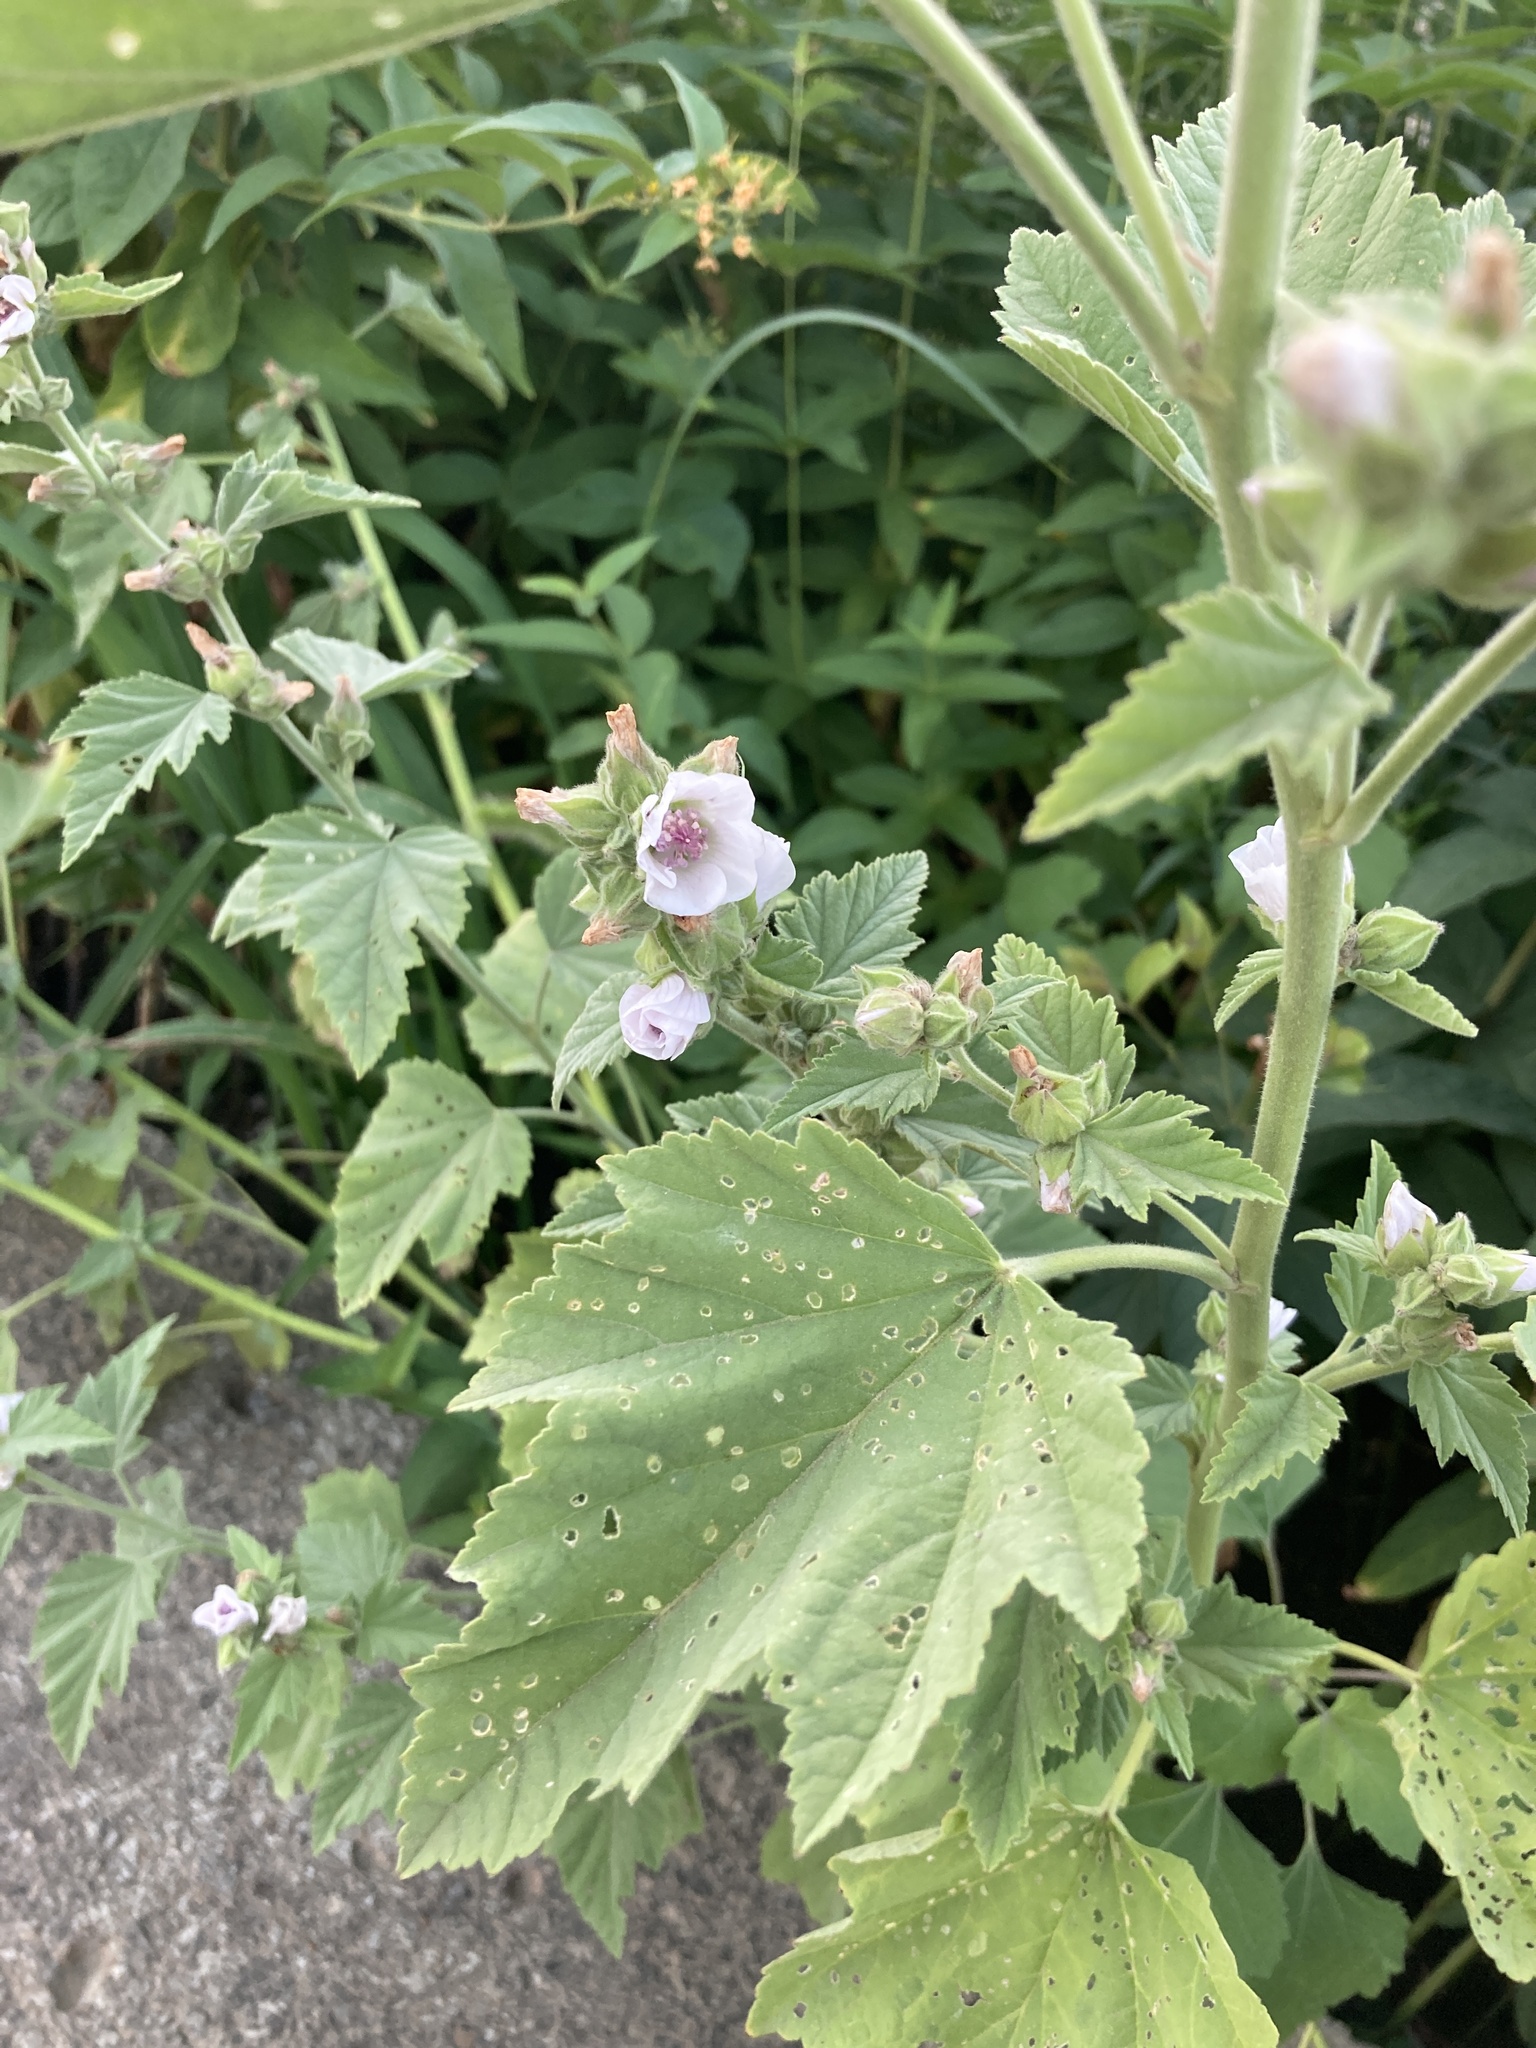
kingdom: Plantae
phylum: Tracheophyta
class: Magnoliopsida
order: Malvales
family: Malvaceae
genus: Althaea
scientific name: Althaea officinalis
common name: Marsh-mallow
